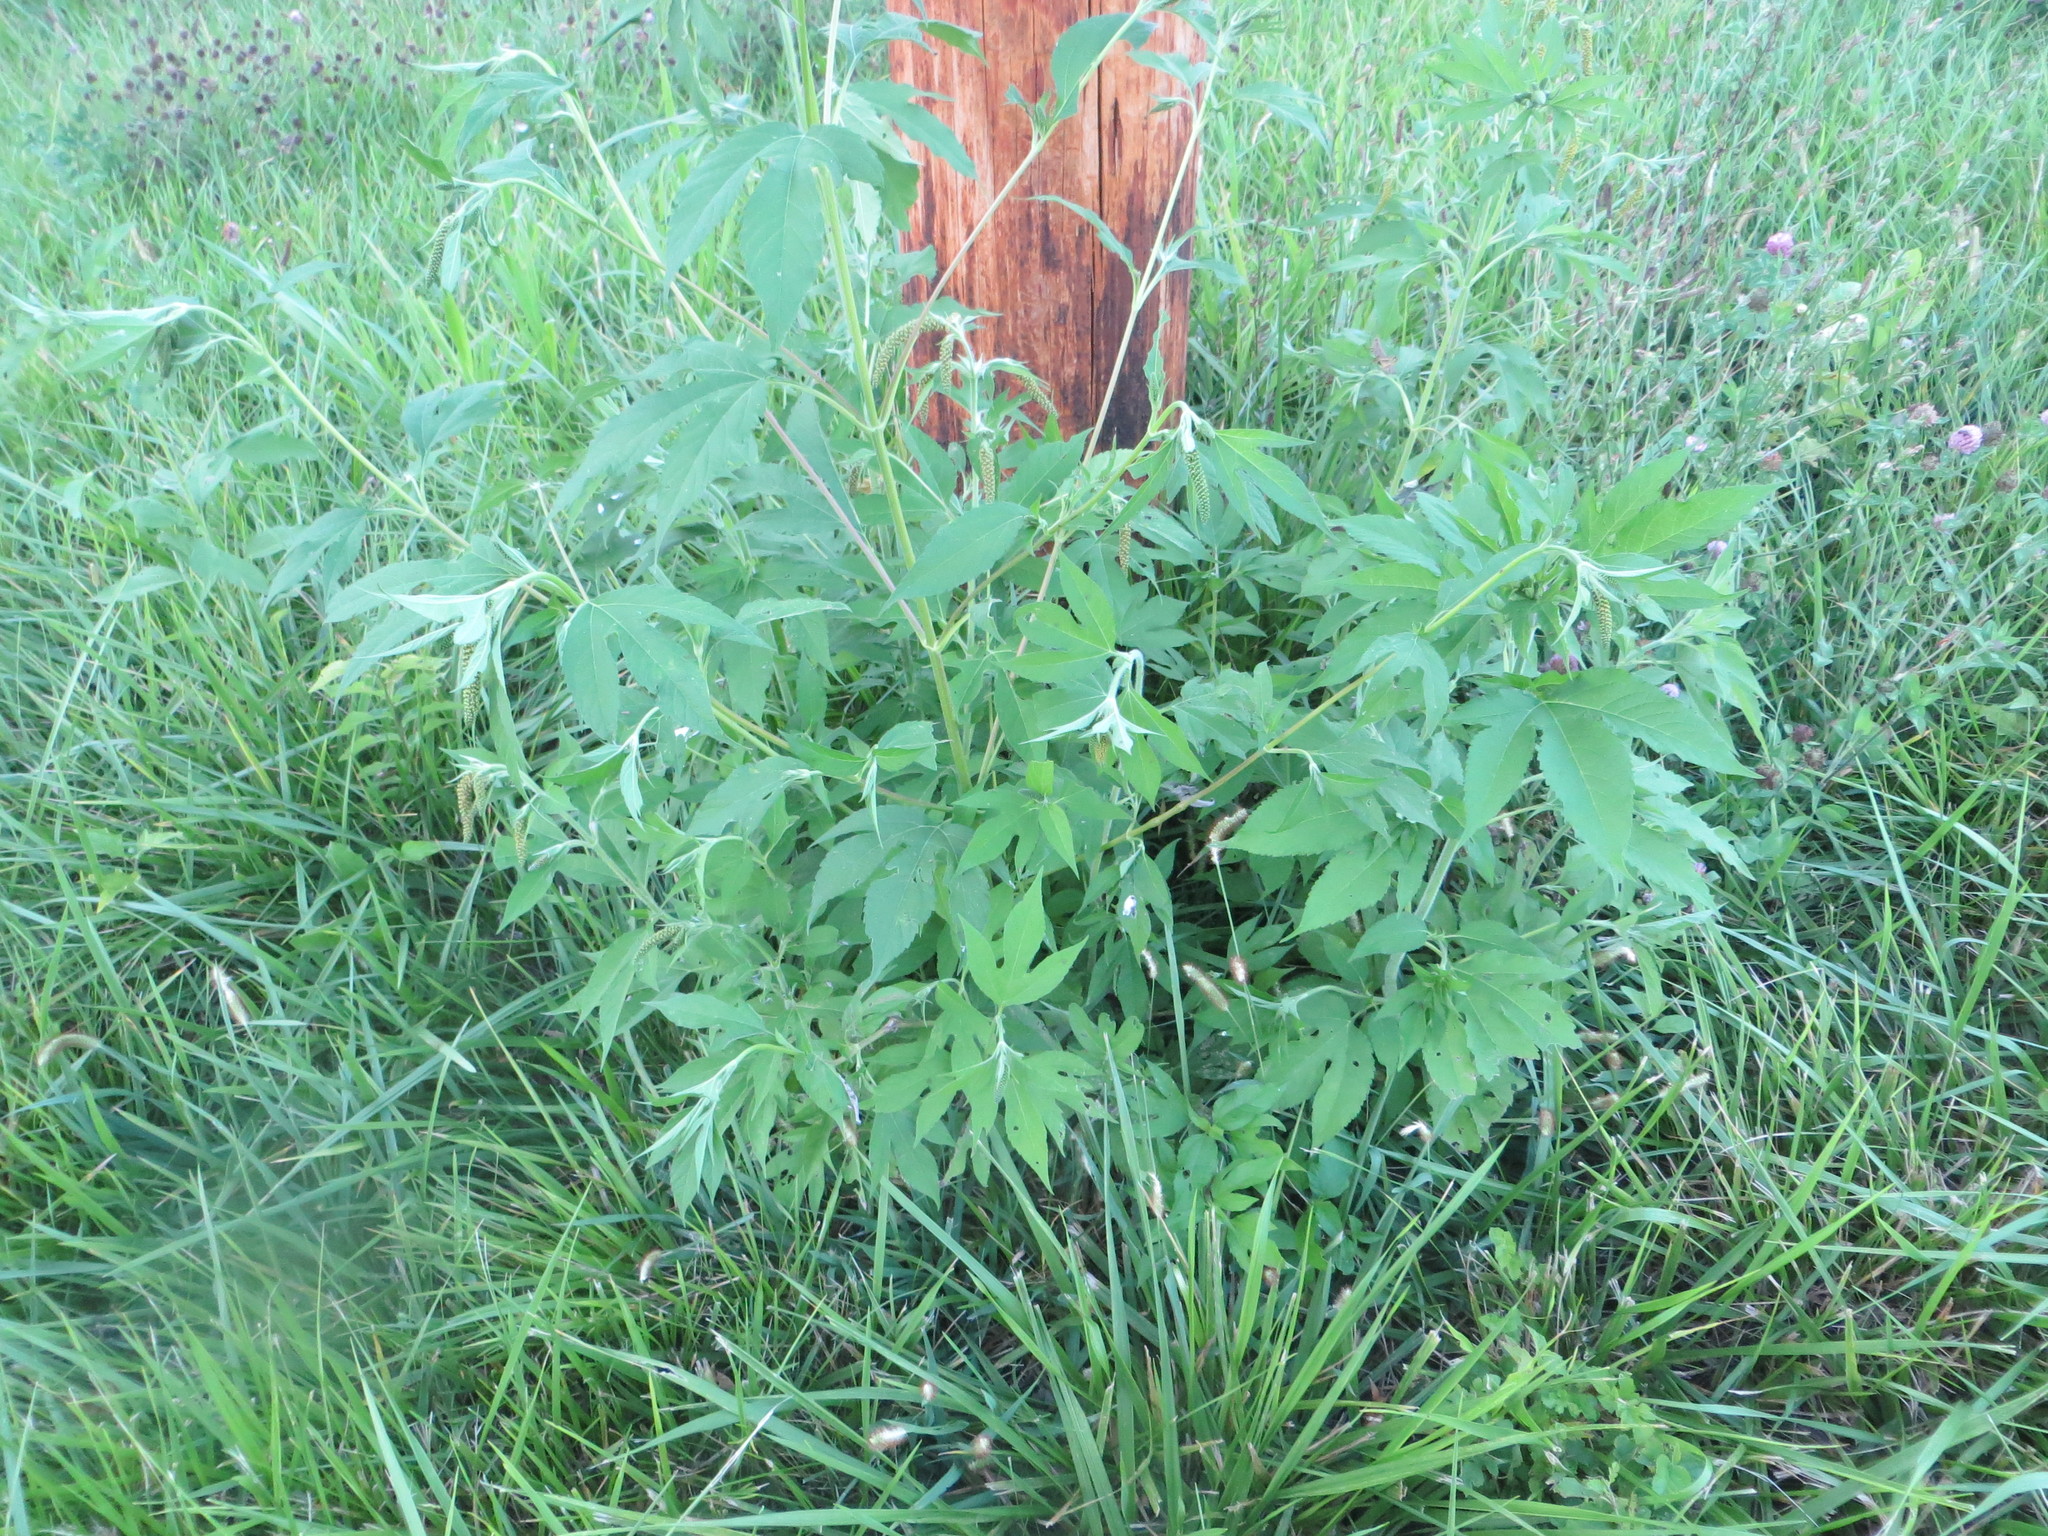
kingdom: Plantae
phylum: Tracheophyta
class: Magnoliopsida
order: Asterales
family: Asteraceae
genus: Ambrosia
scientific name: Ambrosia trifida
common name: Giant ragweed
